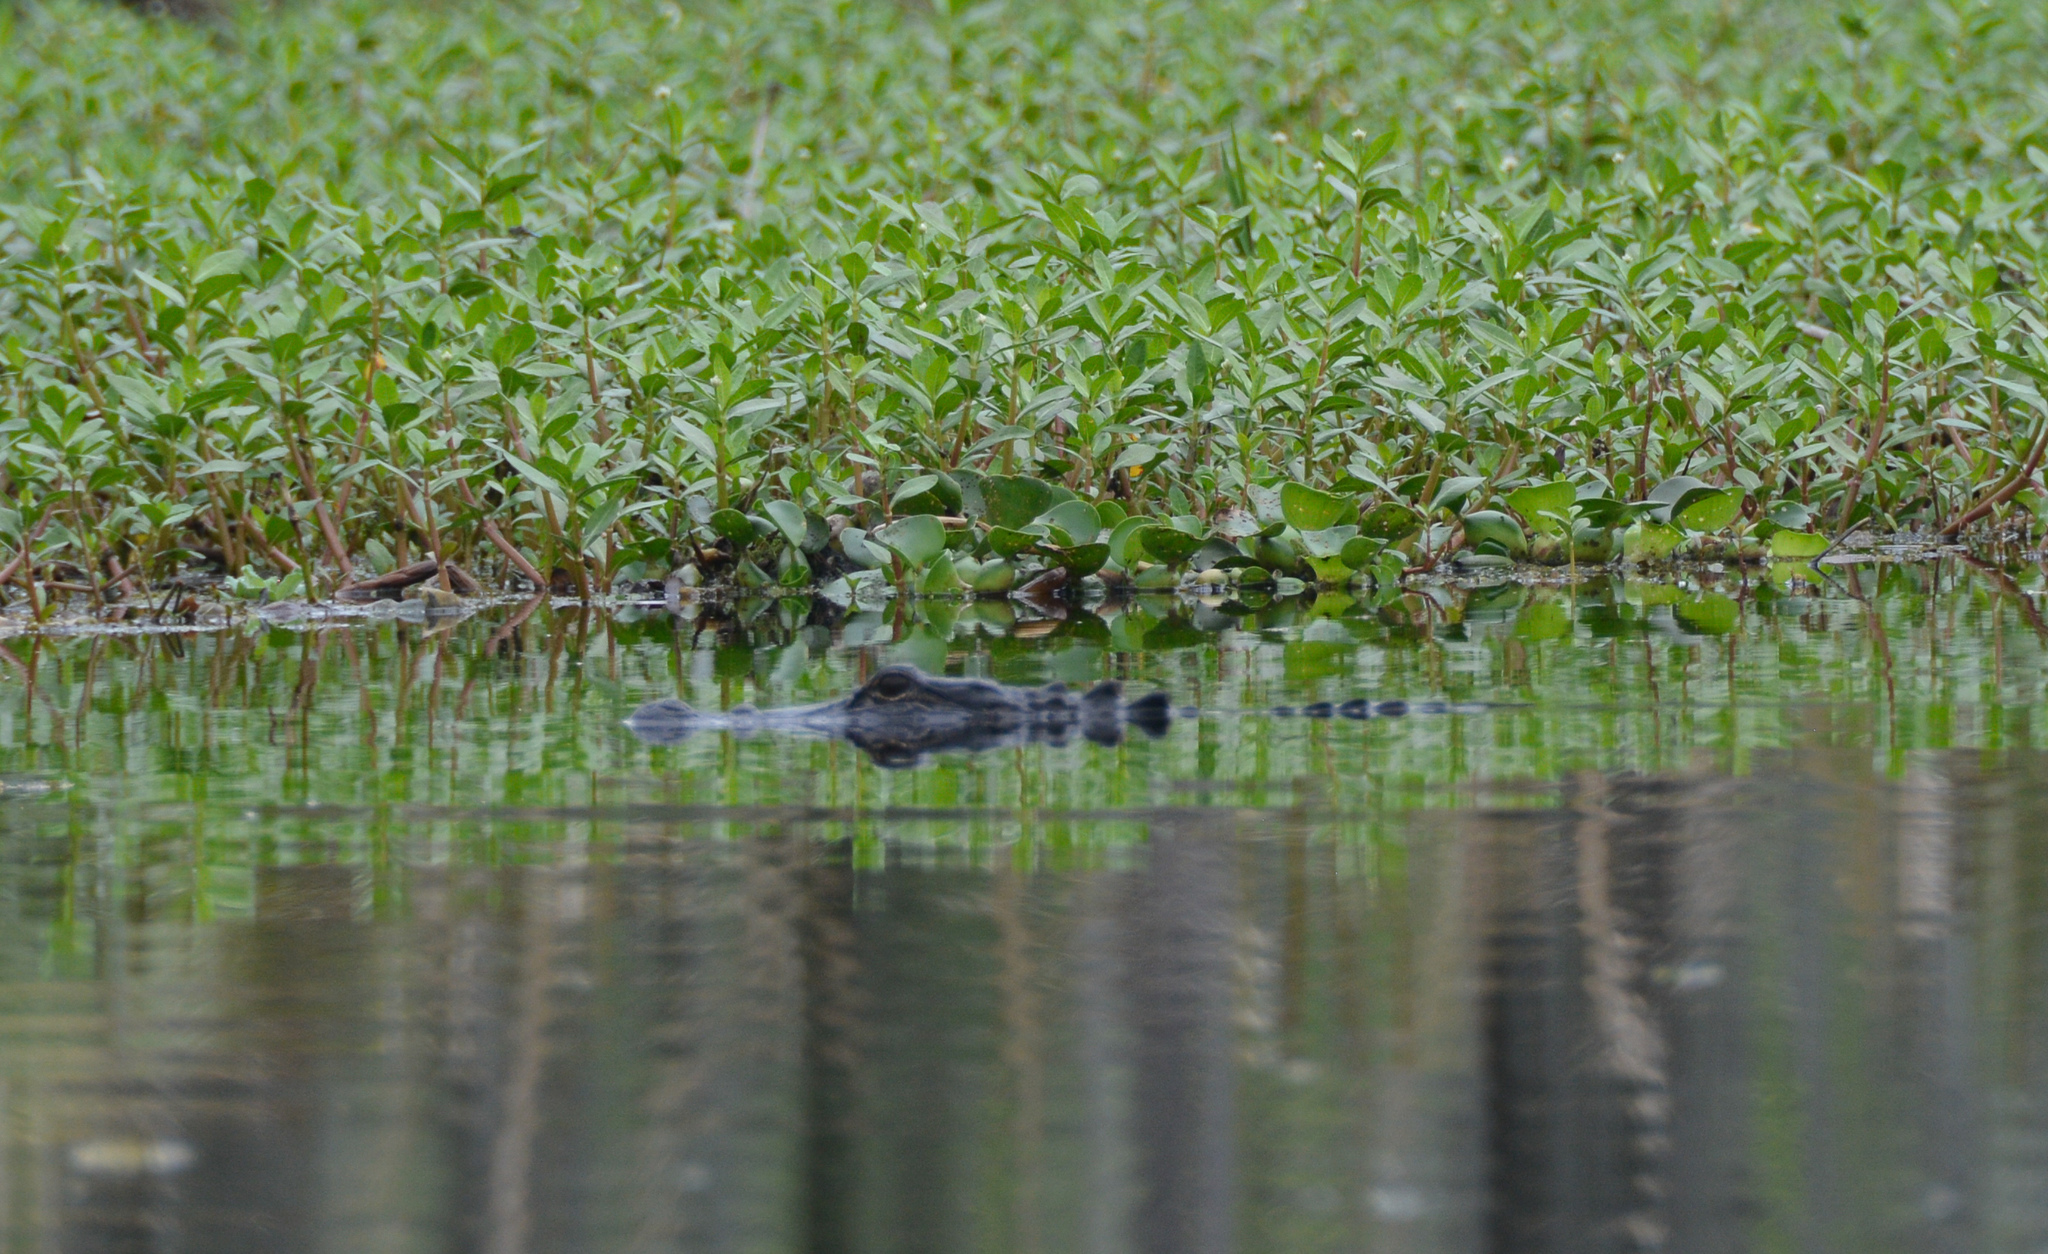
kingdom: Animalia
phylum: Chordata
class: Crocodylia
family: Alligatoridae
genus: Alligator
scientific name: Alligator mississippiensis
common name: American alligator
